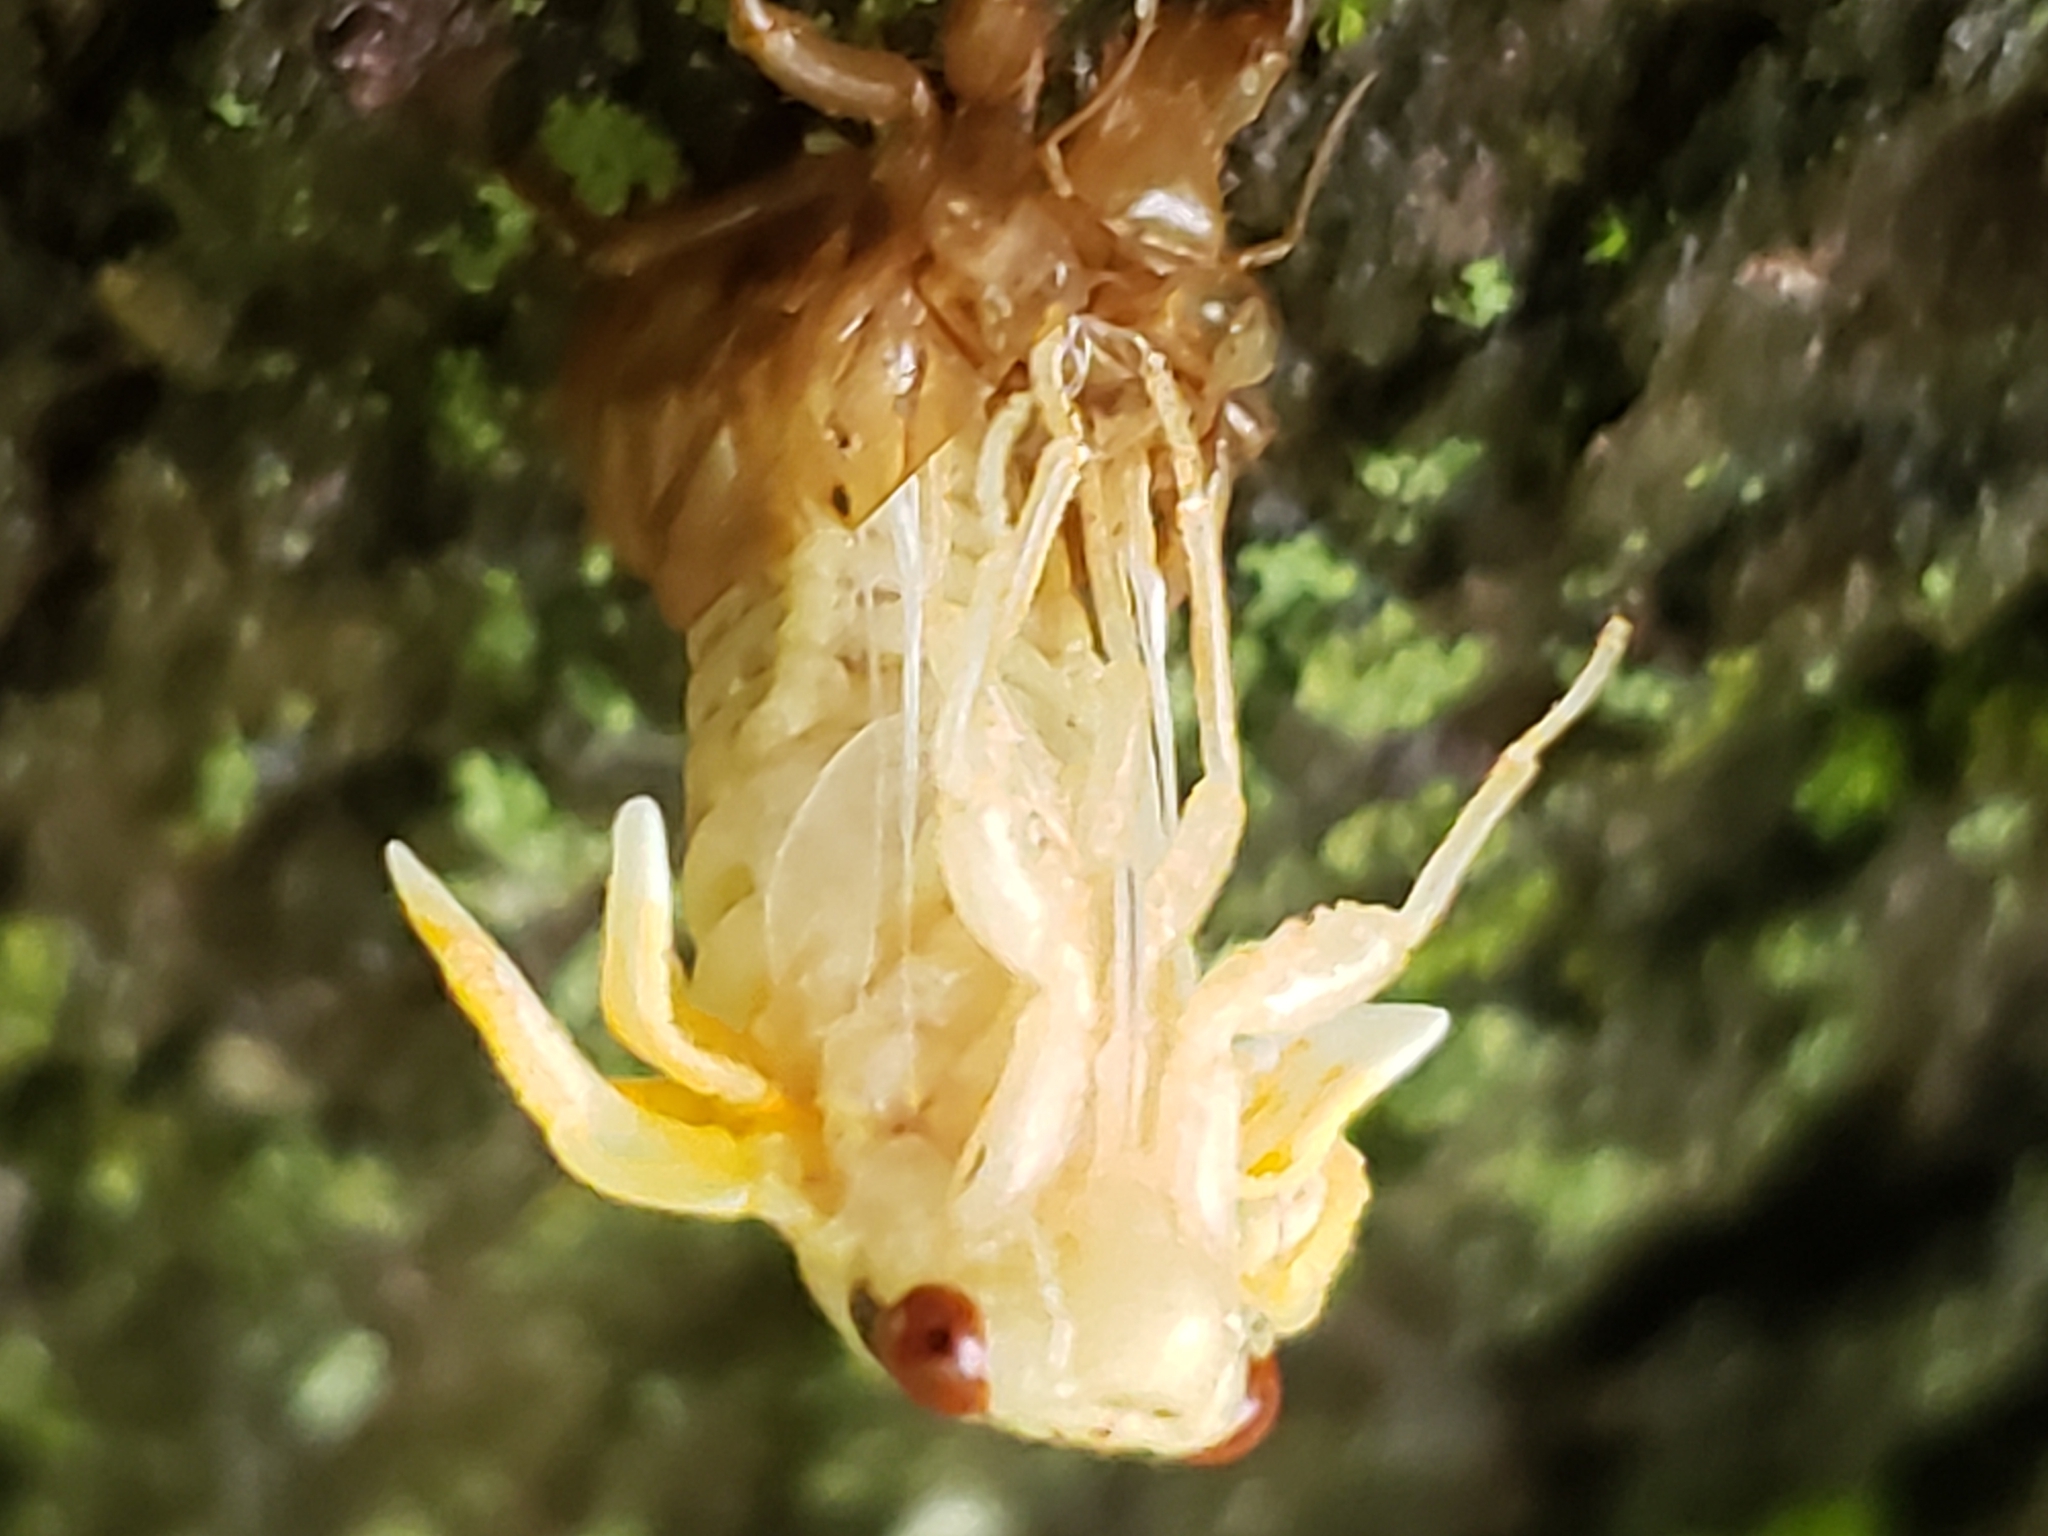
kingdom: Animalia
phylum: Arthropoda
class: Insecta
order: Hemiptera
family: Cicadidae
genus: Magicicada
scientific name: Magicicada
